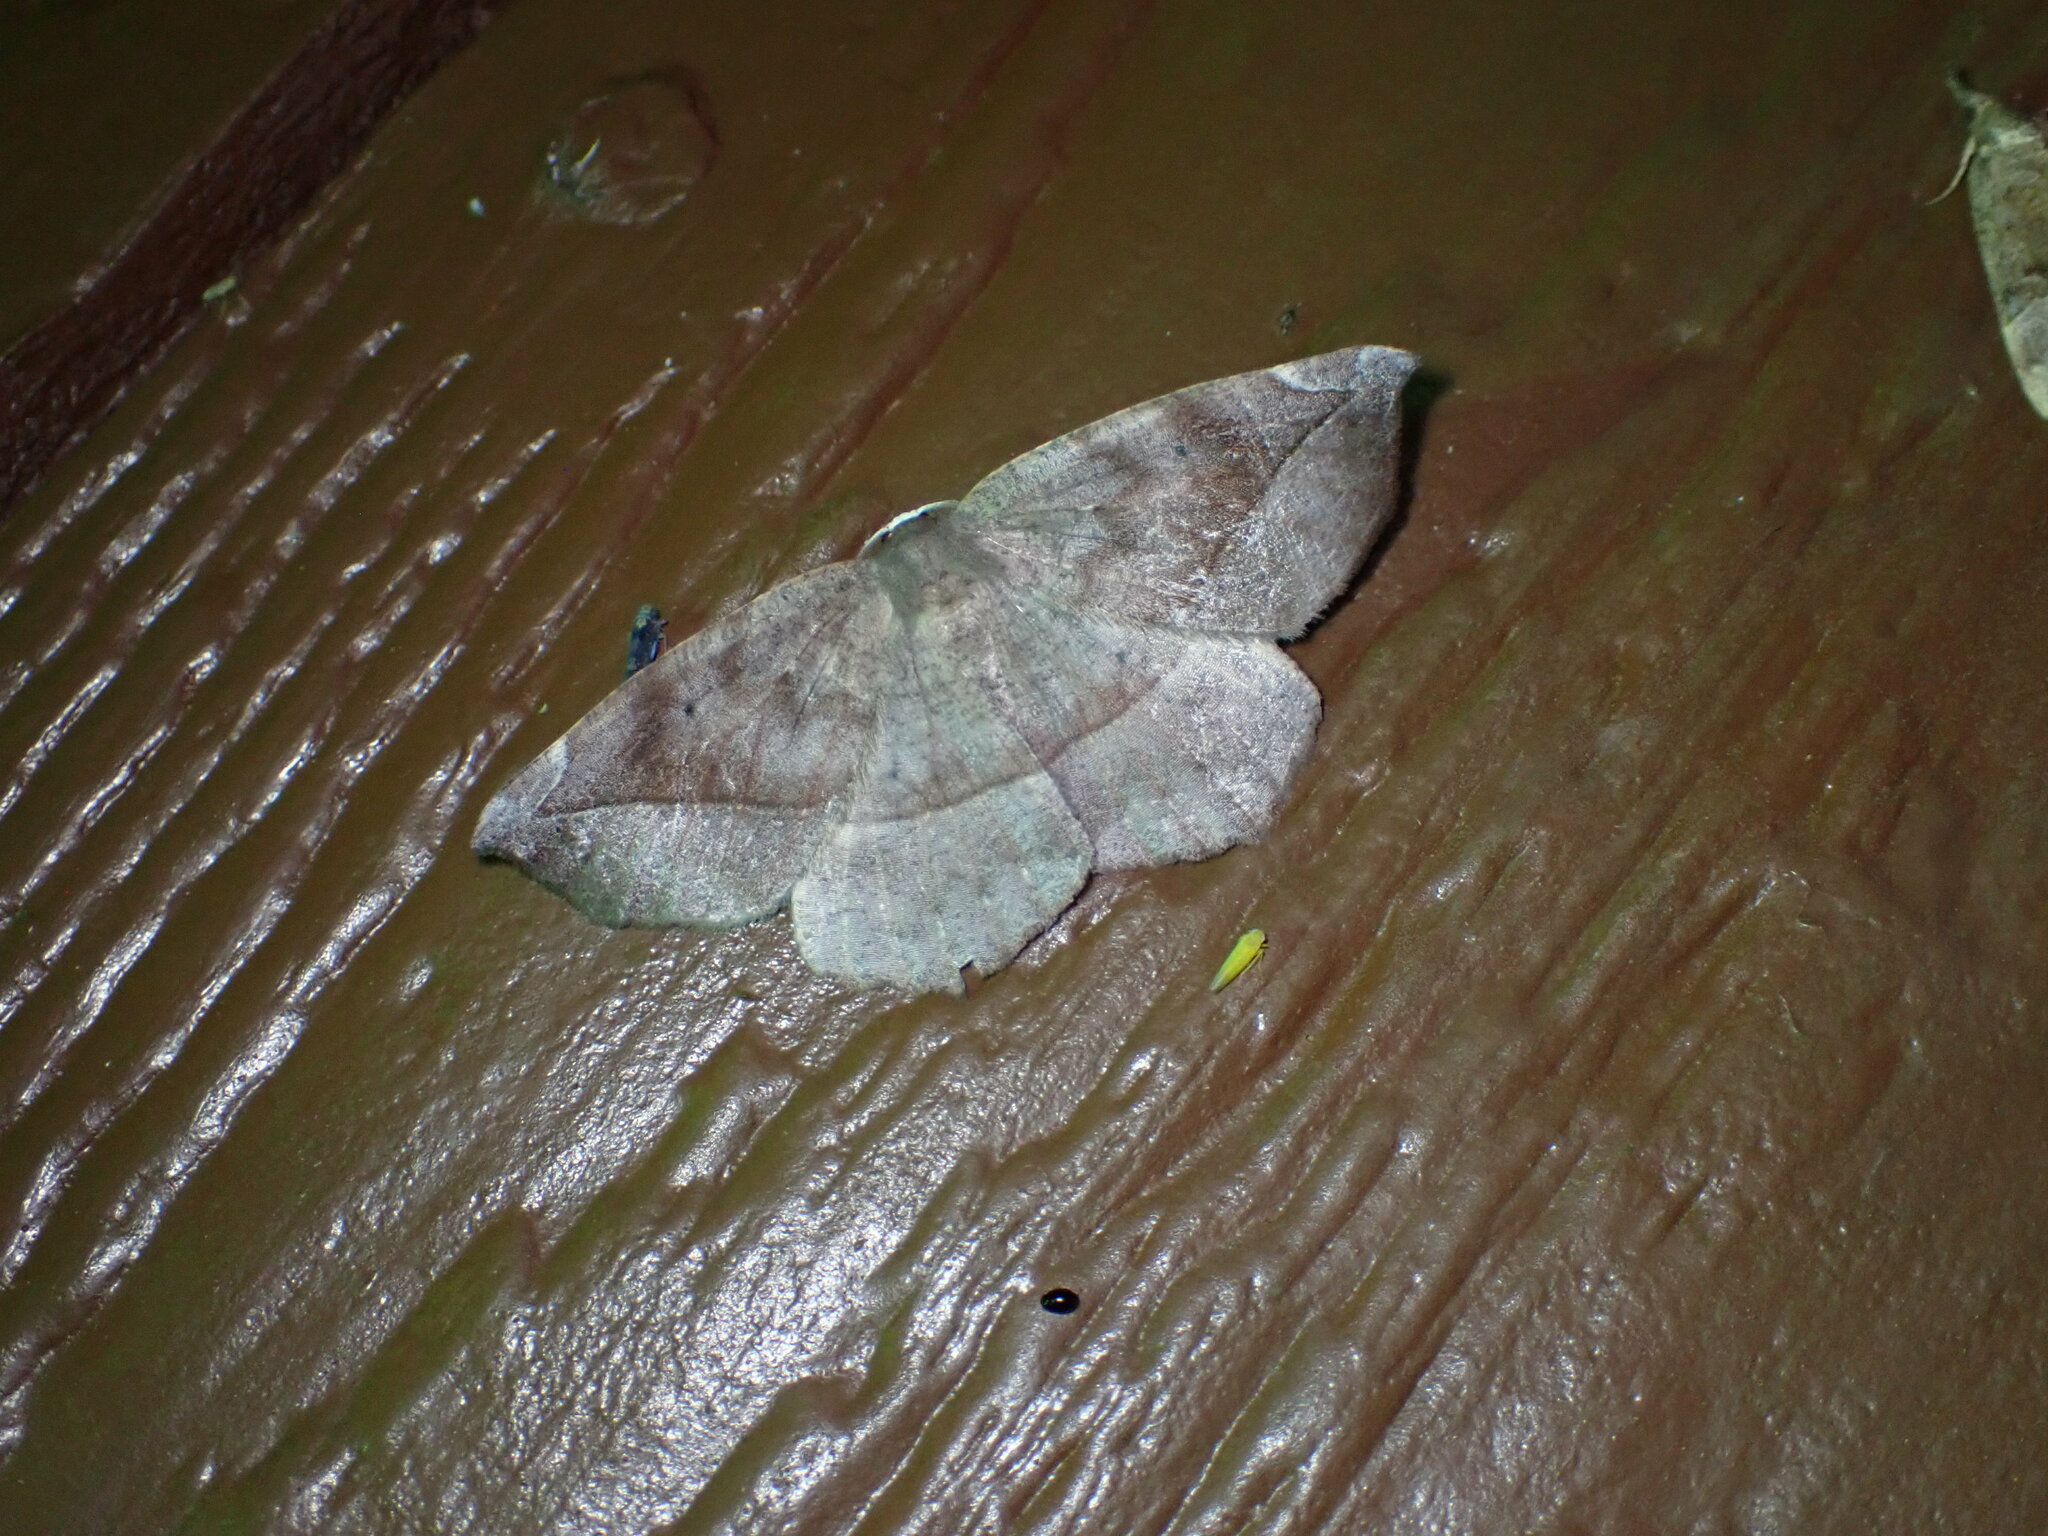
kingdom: Animalia
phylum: Arthropoda
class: Insecta
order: Lepidoptera
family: Geometridae
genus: Eutrapela
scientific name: Eutrapela clemataria
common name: Curved-toothed geometer
